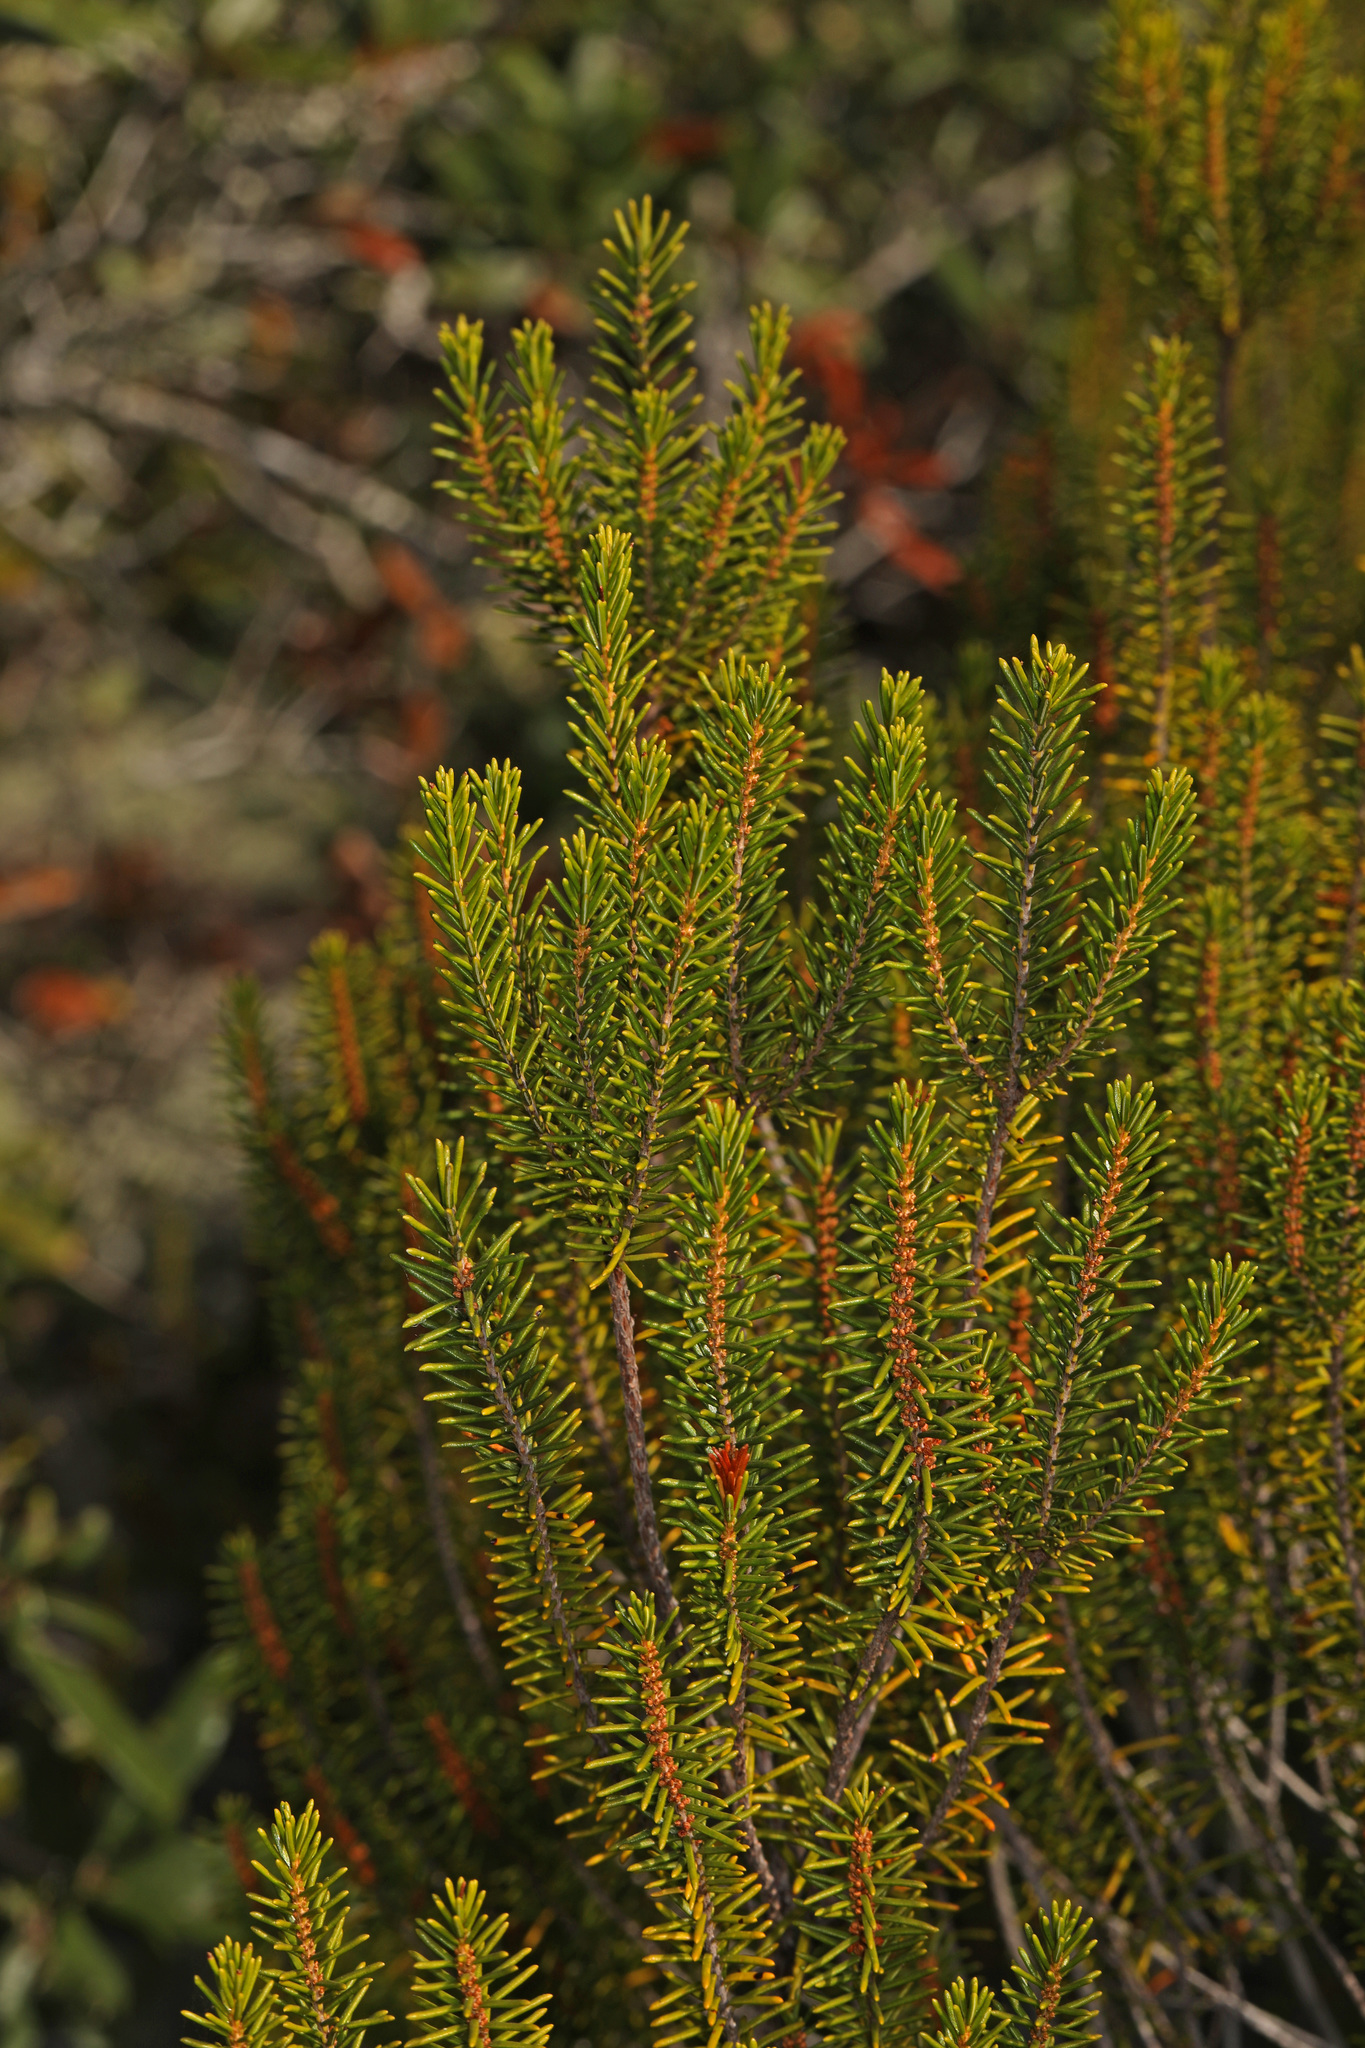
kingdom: Plantae
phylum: Tracheophyta
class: Magnoliopsida
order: Ericales
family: Ericaceae
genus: Ceratiola
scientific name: Ceratiola ericoides
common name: Sandhill-rosemary
